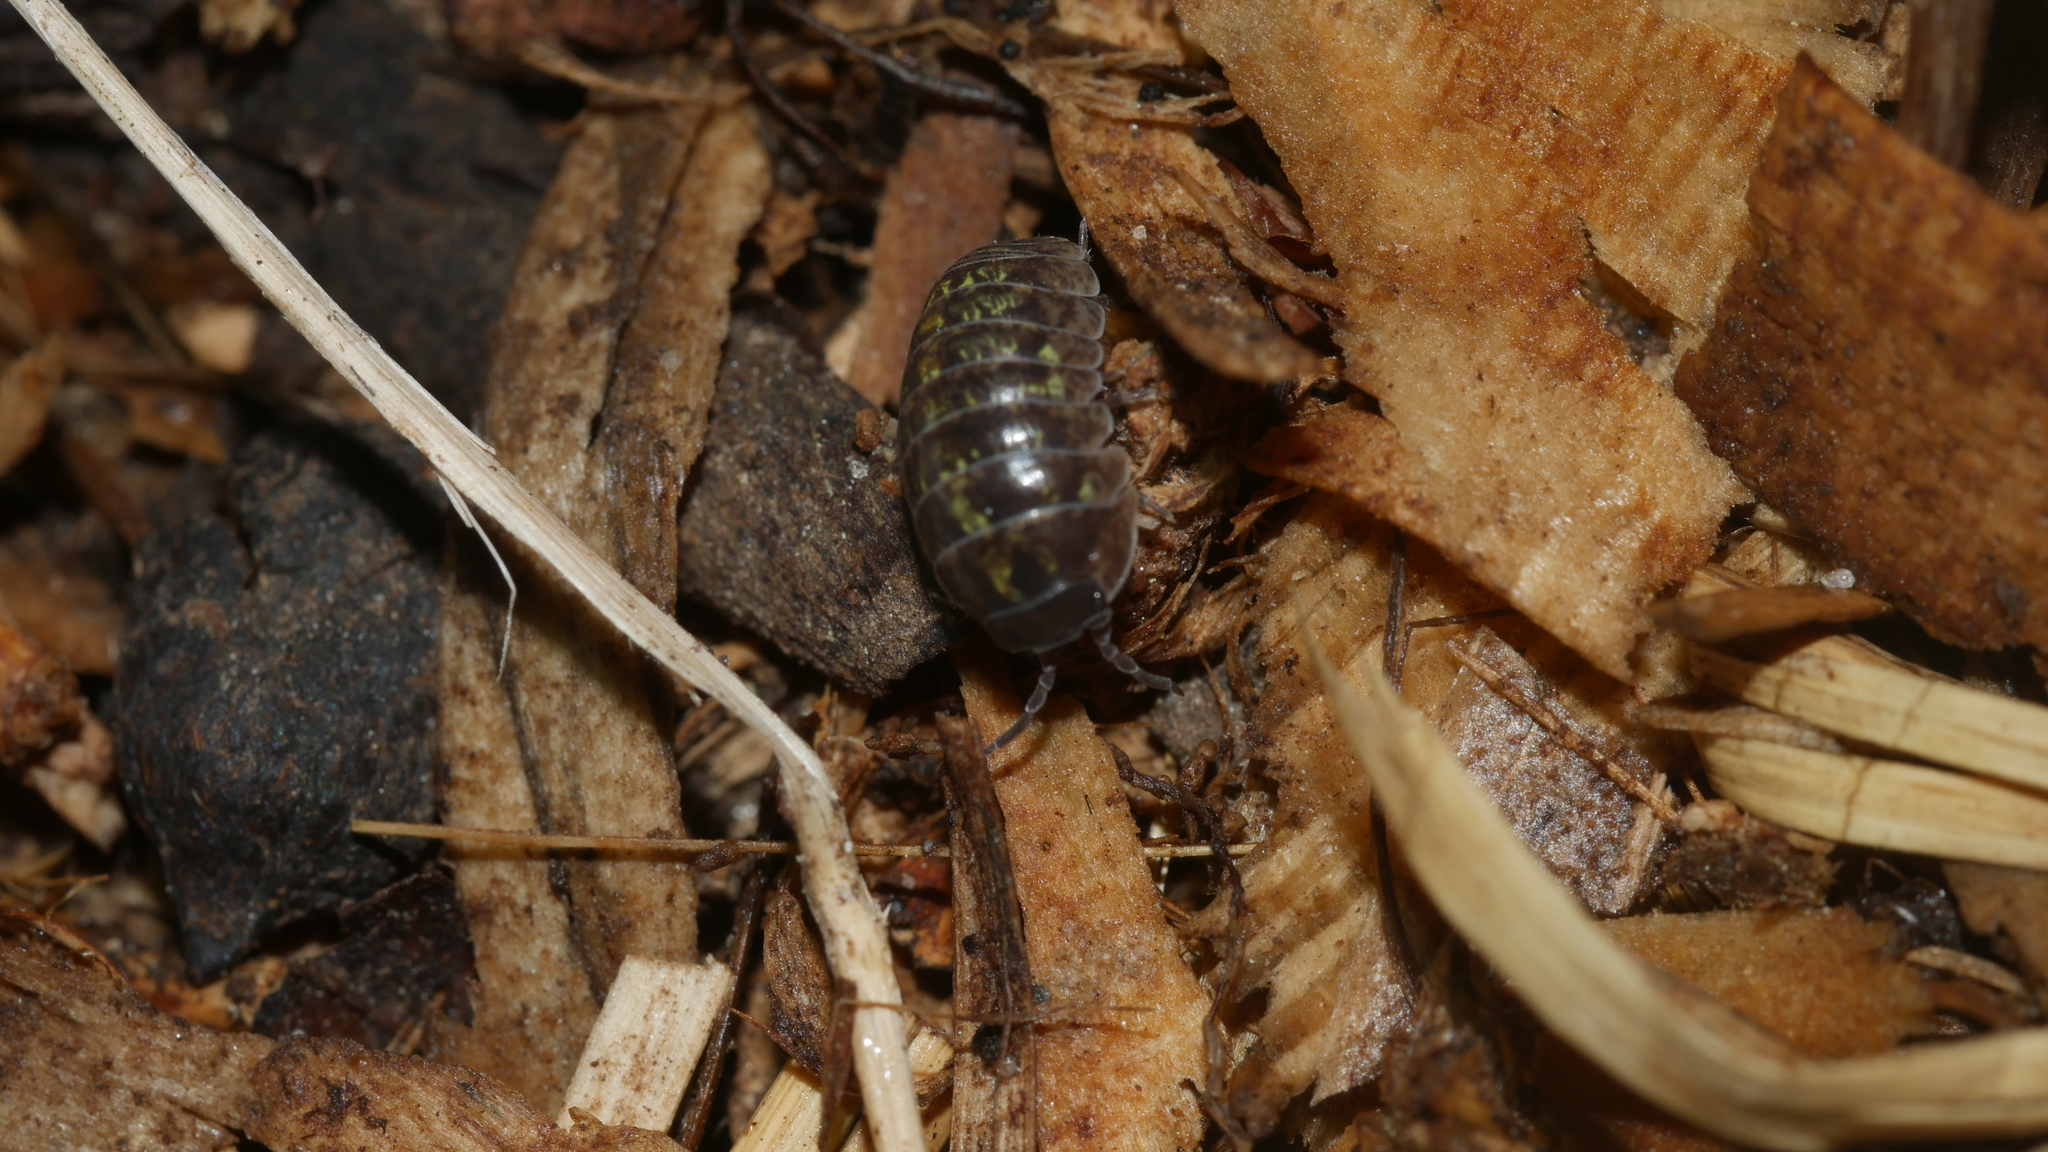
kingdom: Animalia
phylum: Arthropoda
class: Malacostraca
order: Isopoda
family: Armadillidiidae
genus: Armadillidium
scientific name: Armadillidium vulgare
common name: Common pill woodlouse
